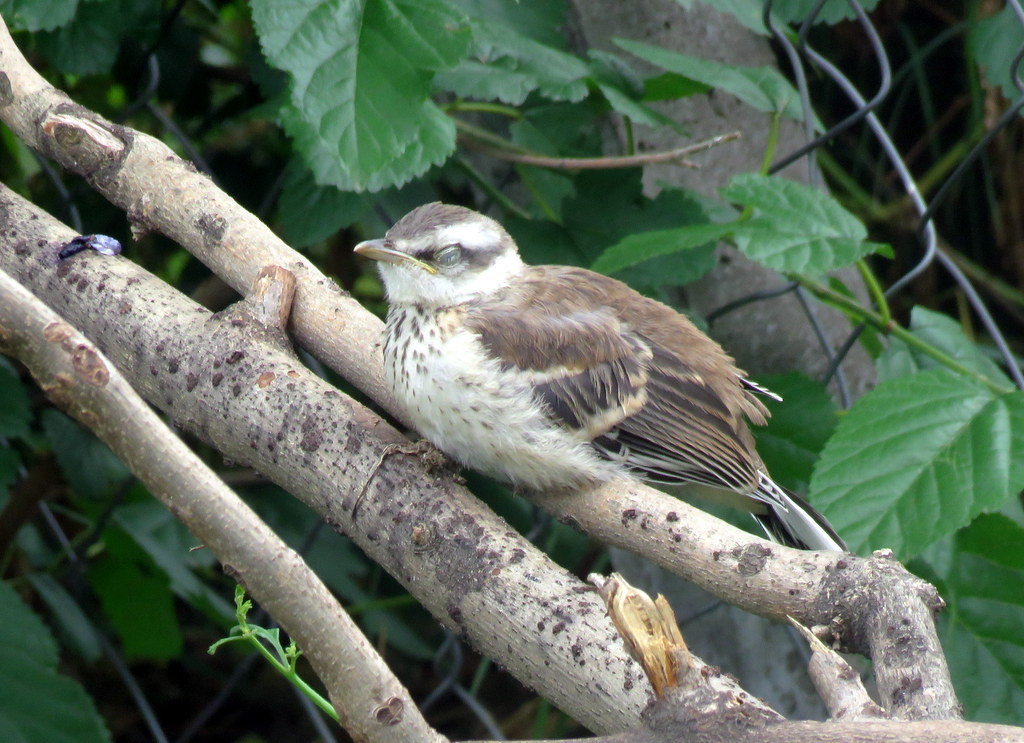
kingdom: Animalia
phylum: Chordata
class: Aves
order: Passeriformes
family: Mimidae
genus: Mimus
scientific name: Mimus saturninus
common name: Chalk-browed mockingbird
